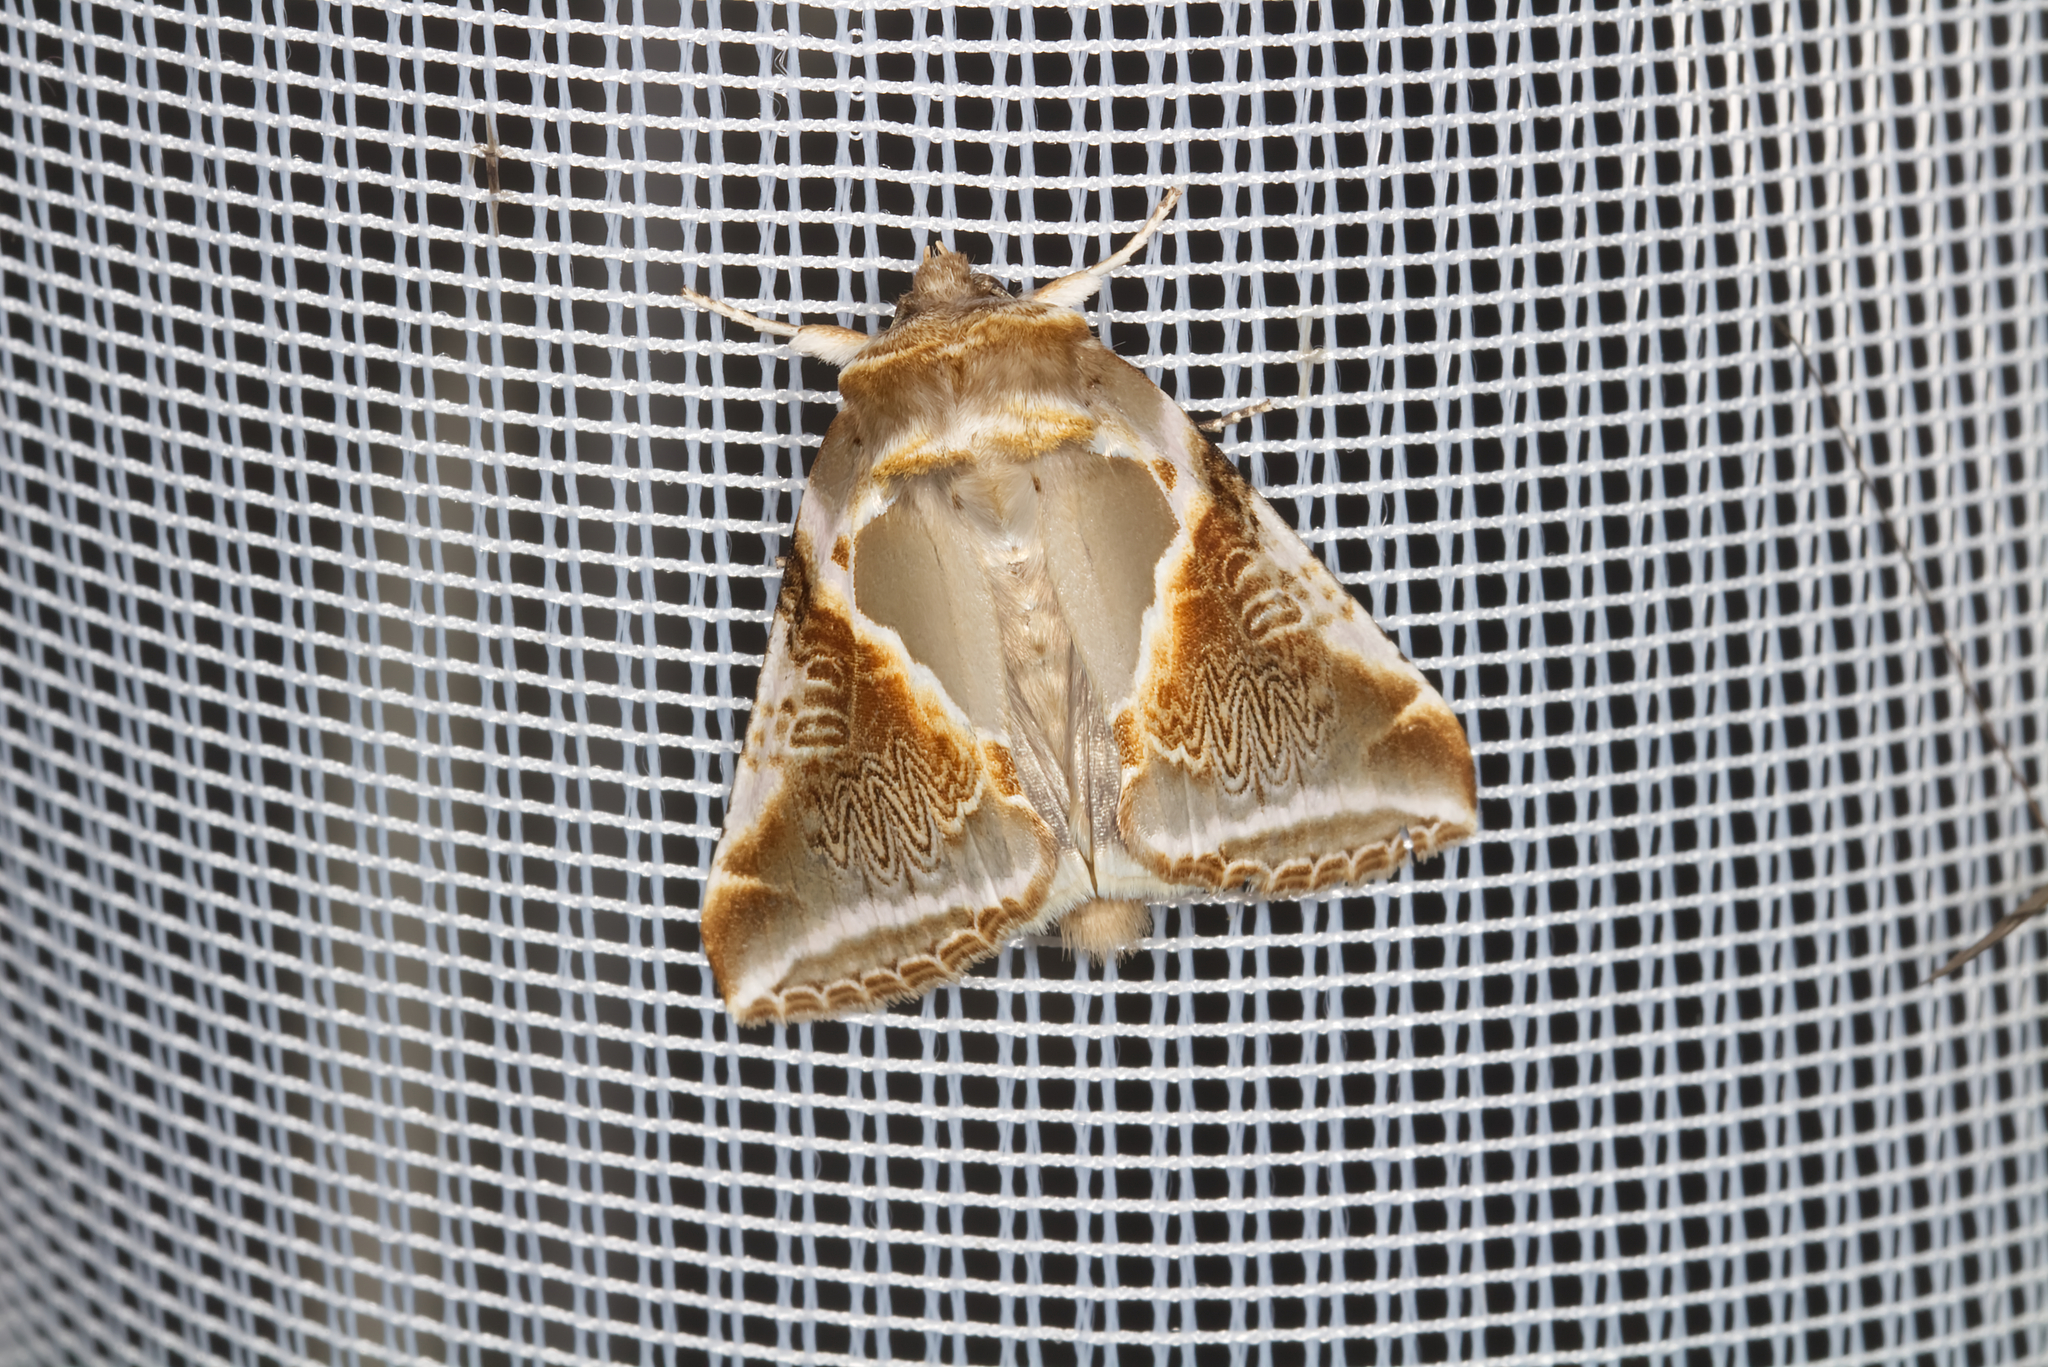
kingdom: Animalia
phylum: Arthropoda
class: Insecta
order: Lepidoptera
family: Drepanidae
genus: Habrosyne
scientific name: Habrosyne pyritoides
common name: Buff arches
